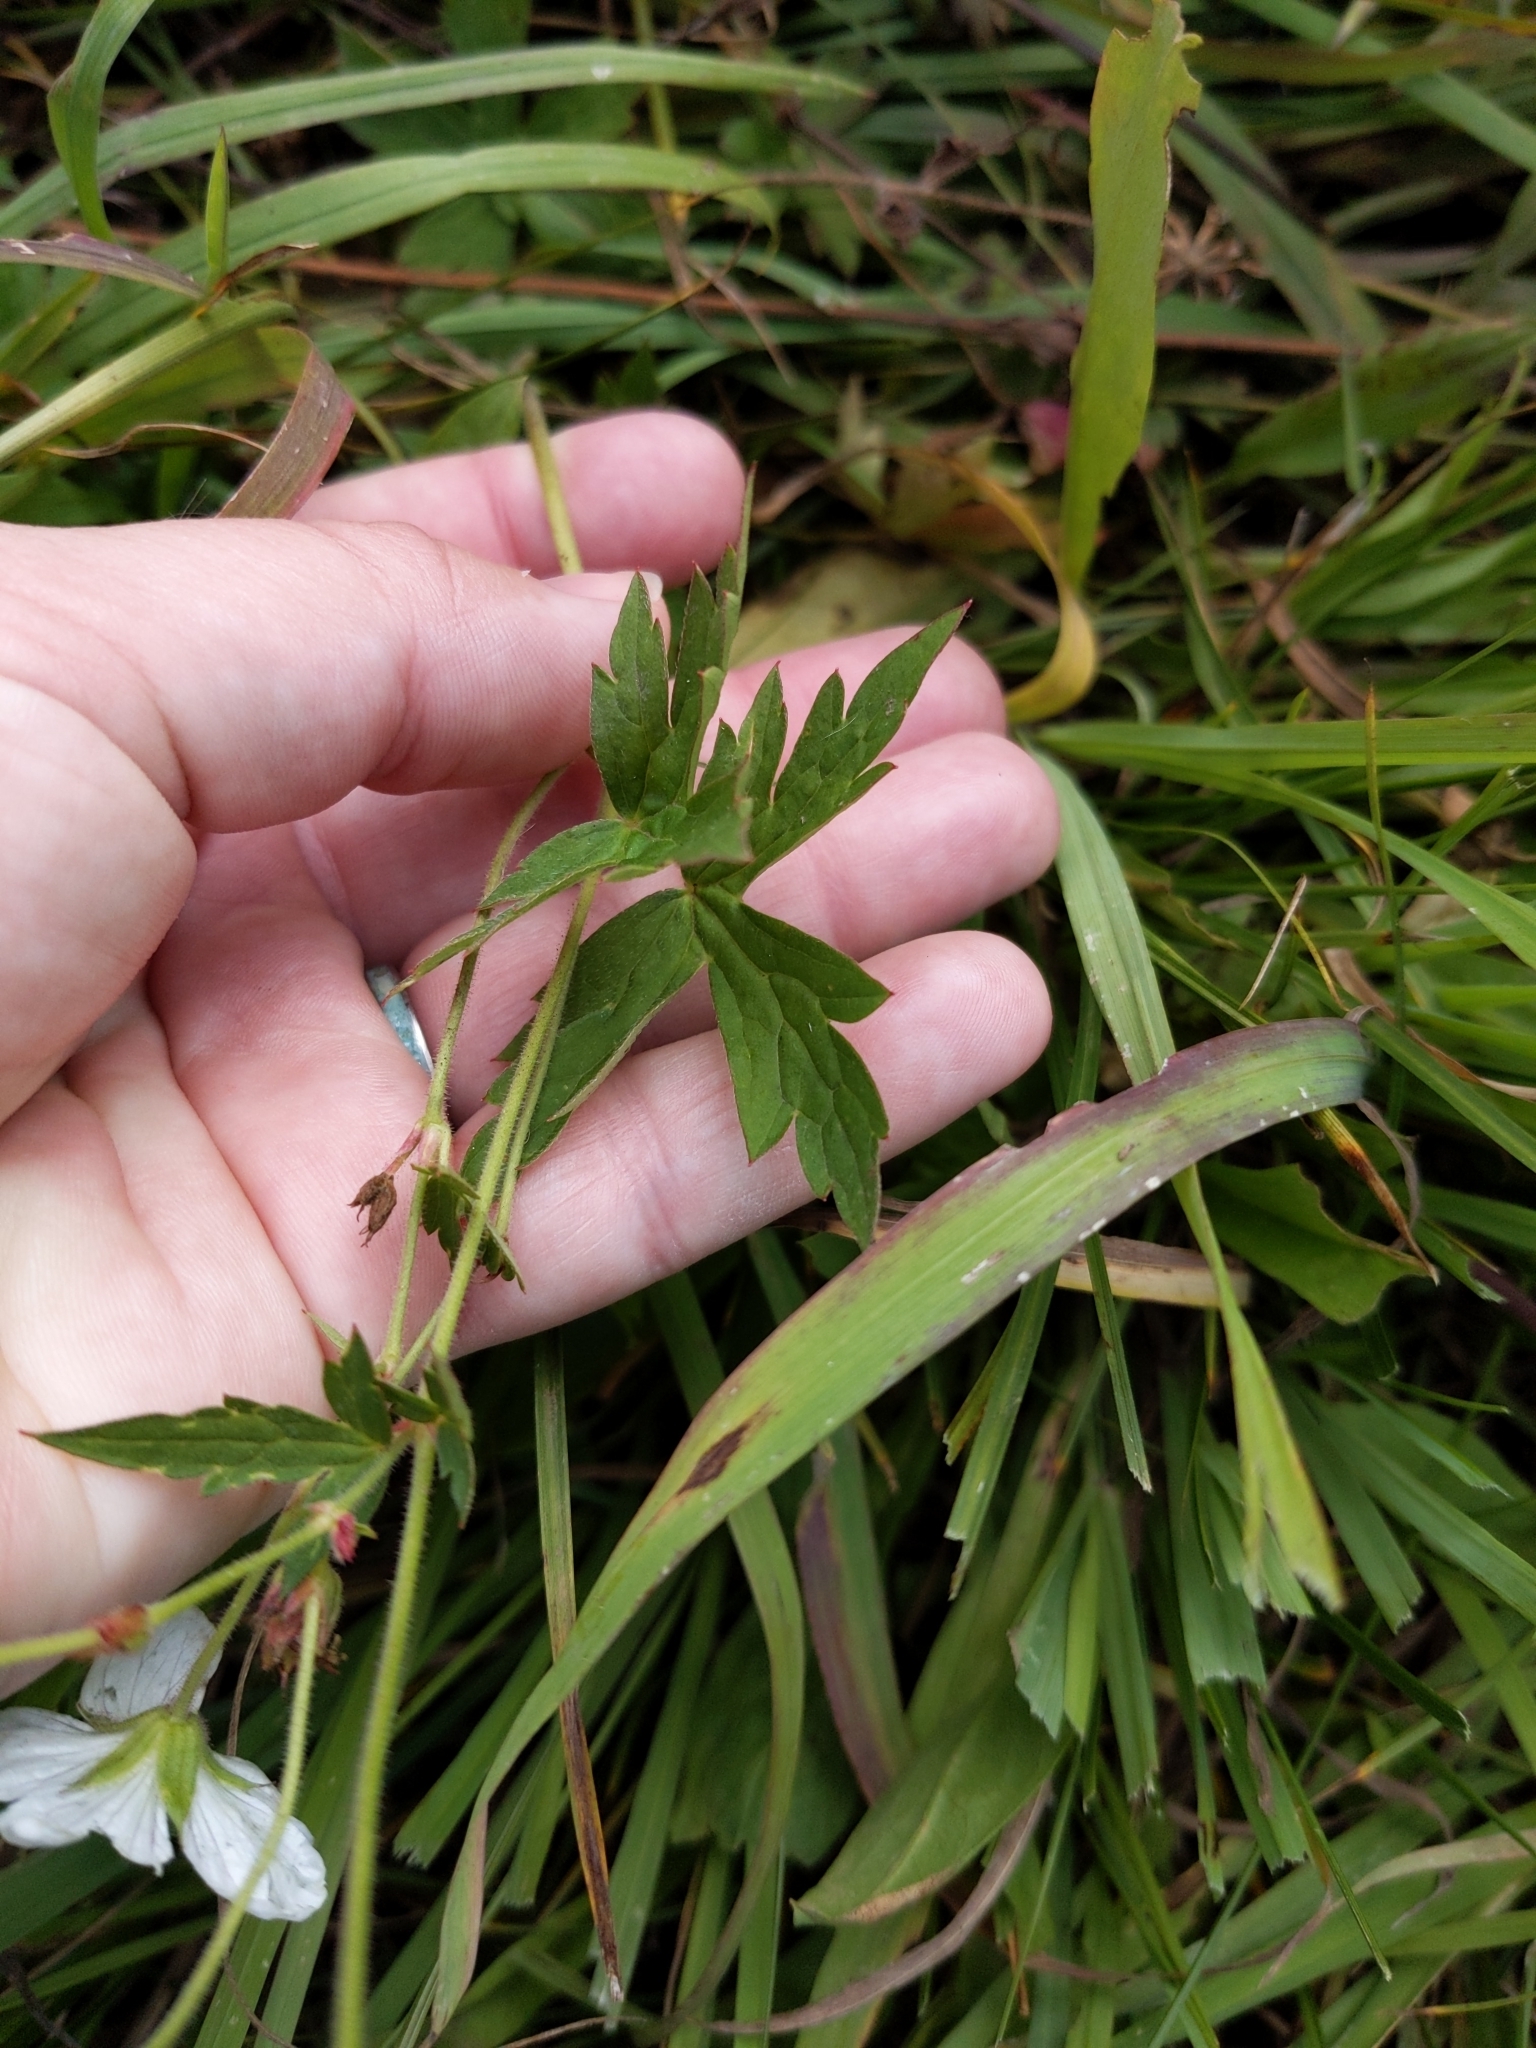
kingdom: Plantae
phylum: Tracheophyta
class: Magnoliopsida
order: Geraniales
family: Geraniaceae
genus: Geranium
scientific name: Geranium richardsonii
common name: Richardson's crane's-bill
